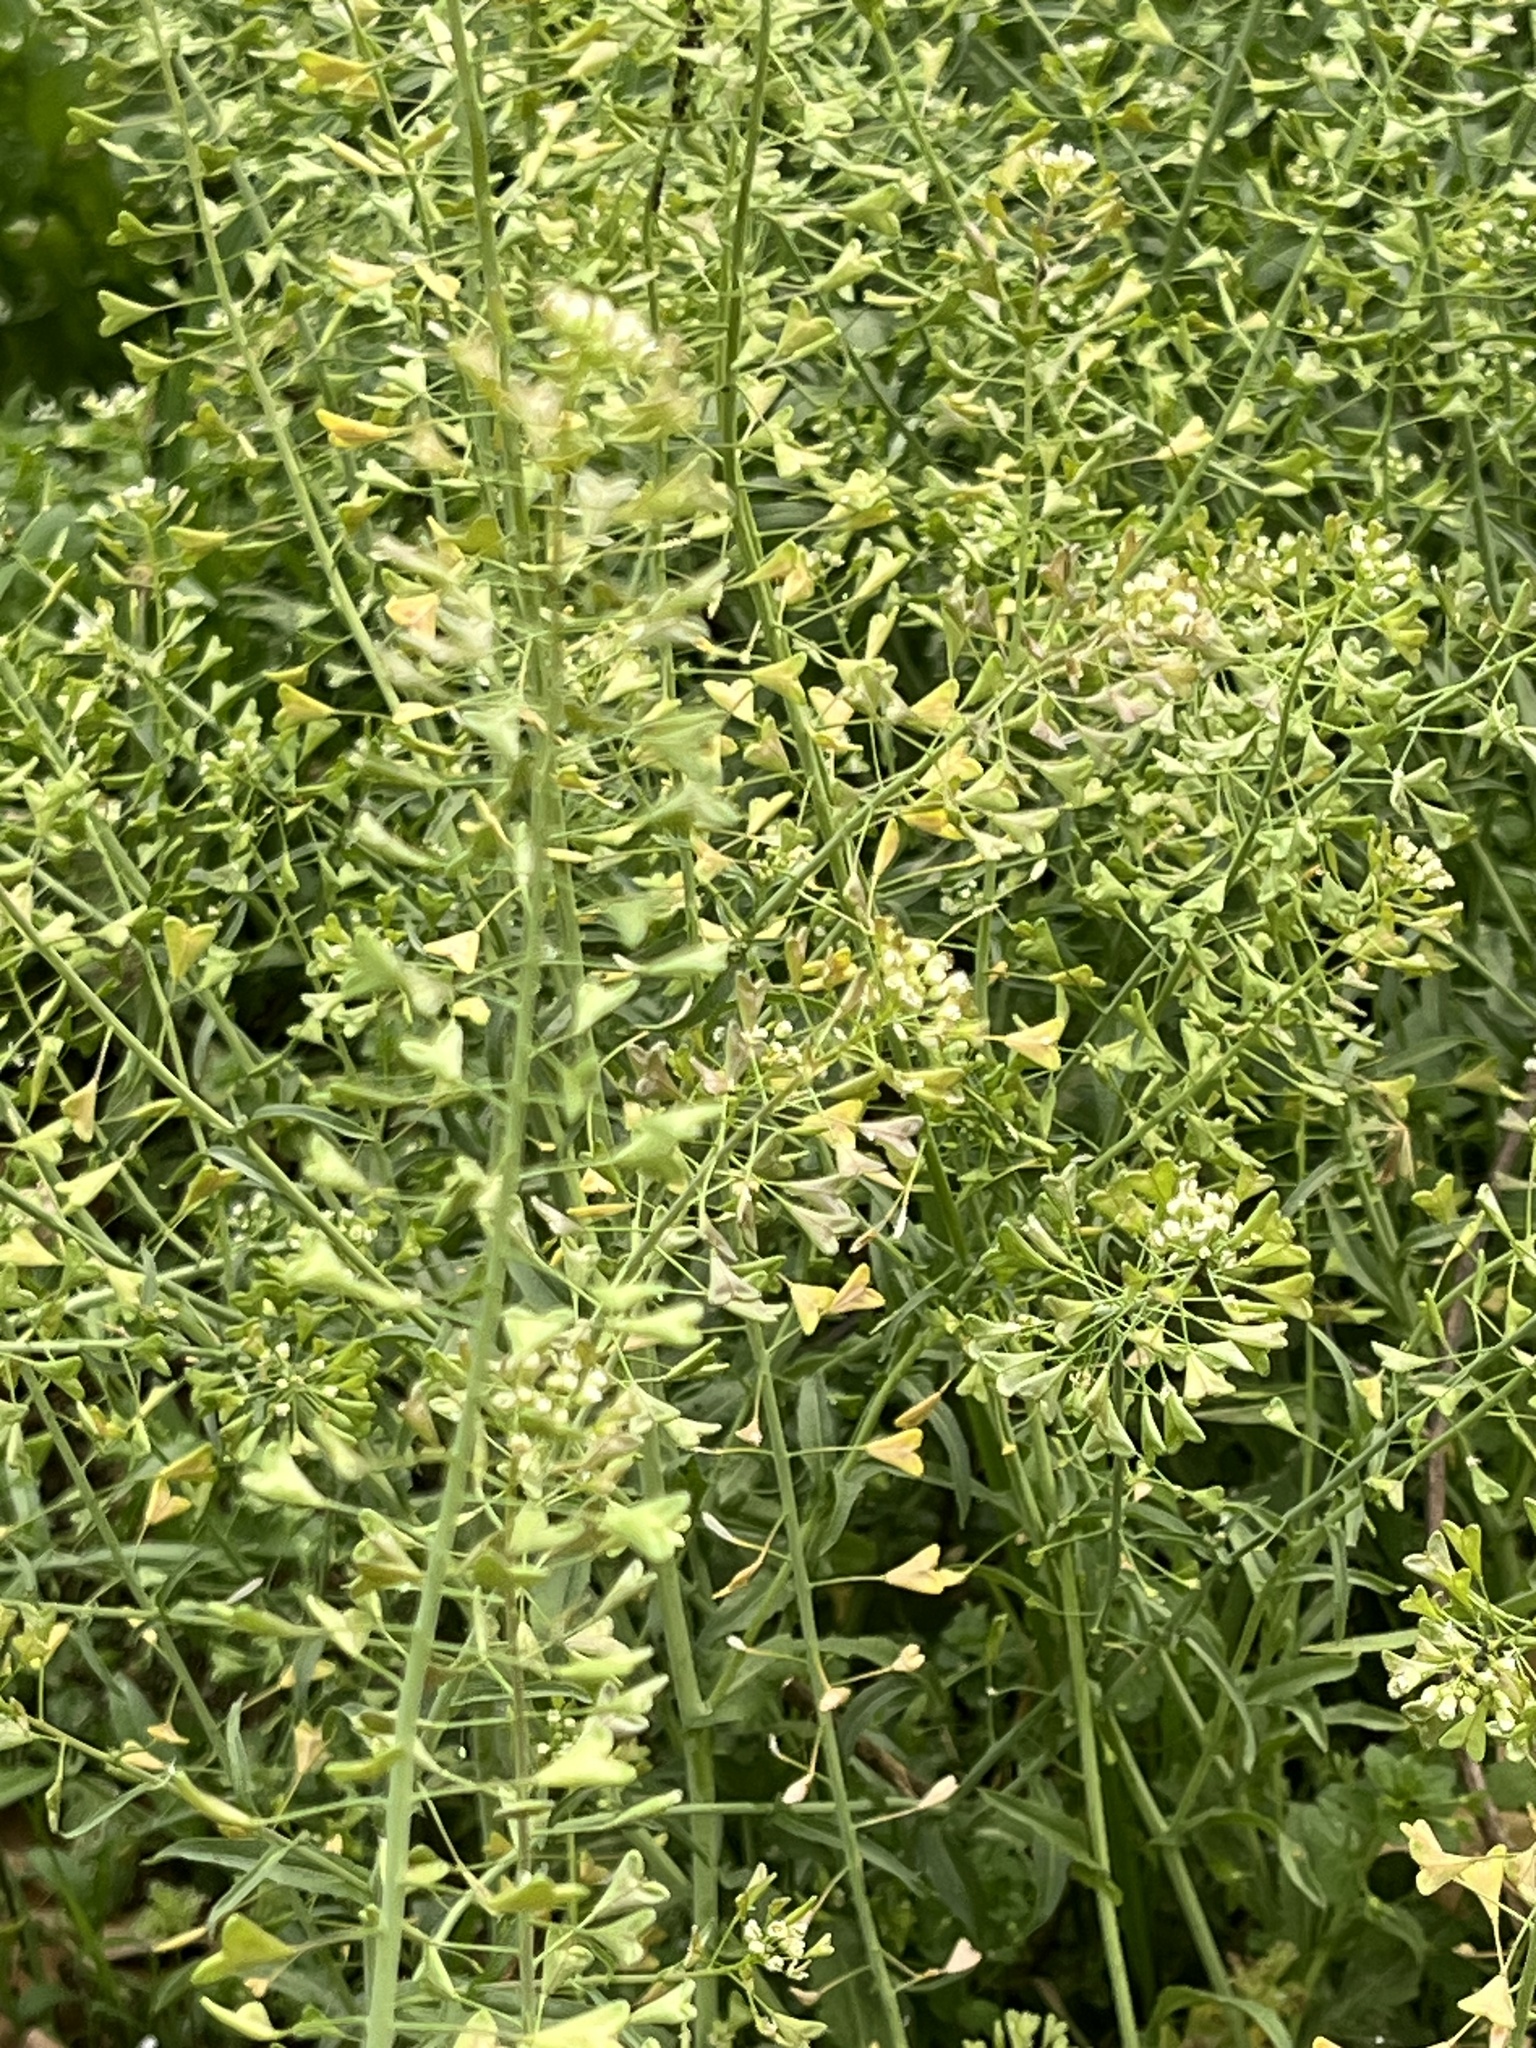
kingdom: Plantae
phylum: Tracheophyta
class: Magnoliopsida
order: Brassicales
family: Brassicaceae
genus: Capsella
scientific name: Capsella bursa-pastoris
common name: Shepherd's purse
